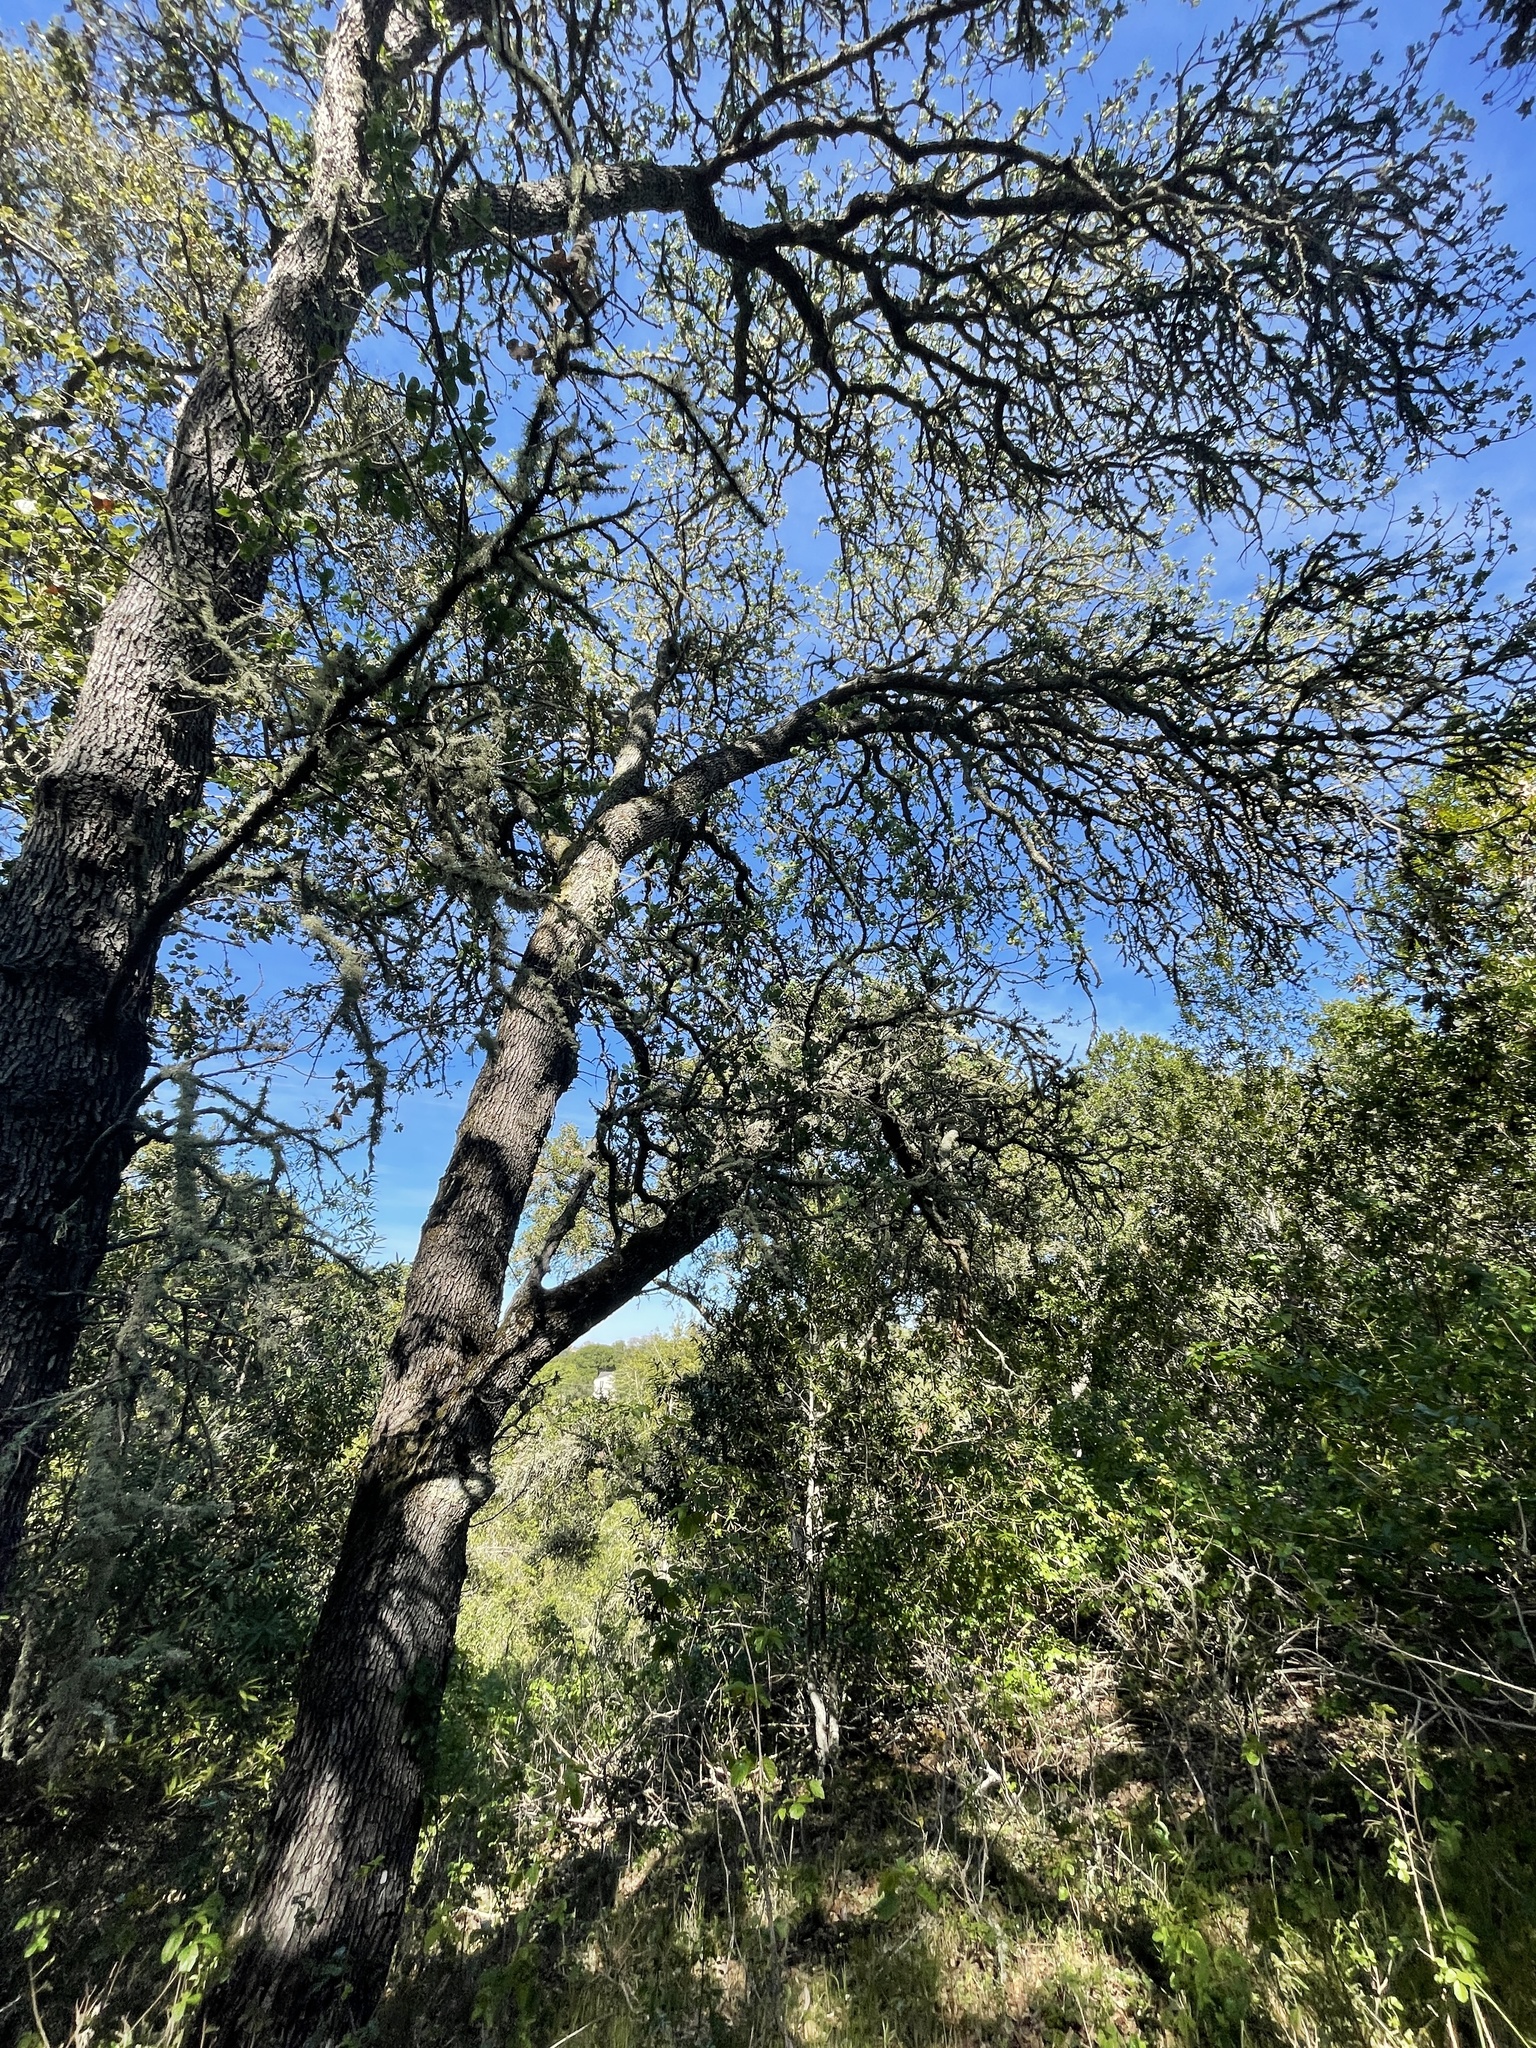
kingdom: Plantae
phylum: Tracheophyta
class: Magnoliopsida
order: Fagales
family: Fagaceae
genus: Quercus
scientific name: Quercus douglasii
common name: Blue oak
